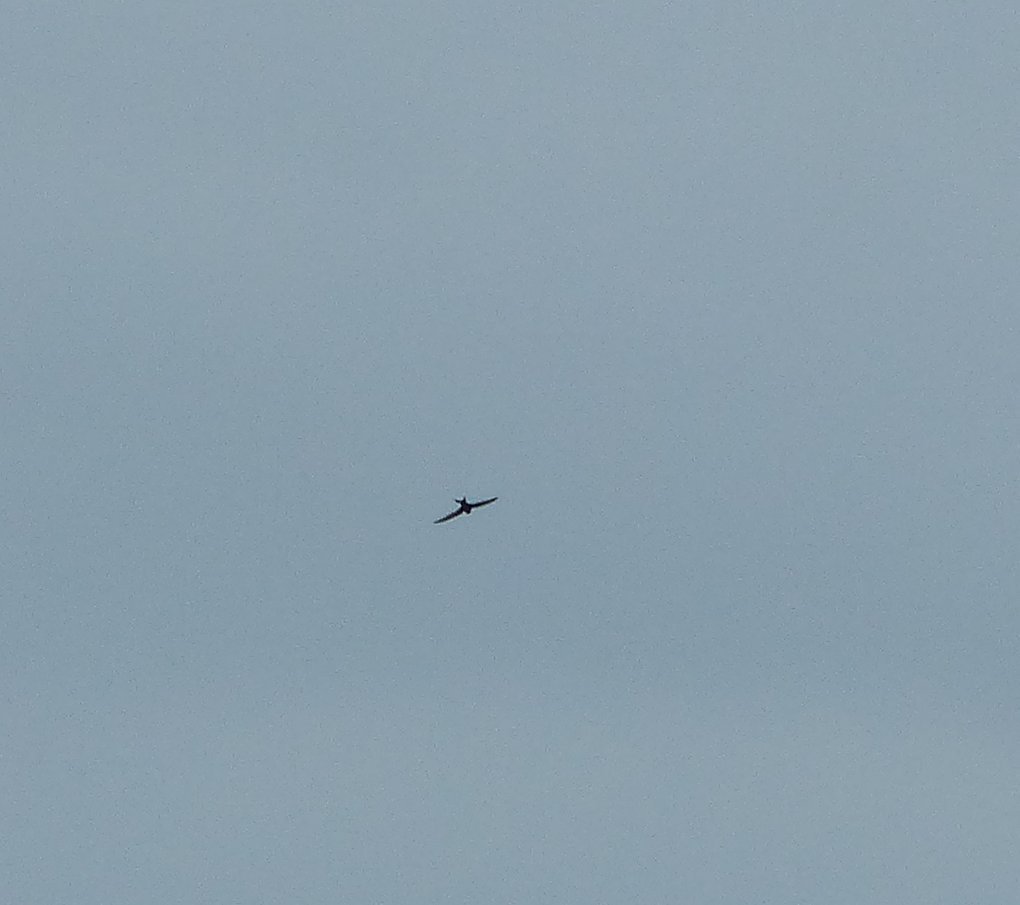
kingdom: Animalia
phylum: Chordata
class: Aves
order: Apodiformes
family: Apodidae
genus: Apus
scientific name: Apus apus
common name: Common swift
